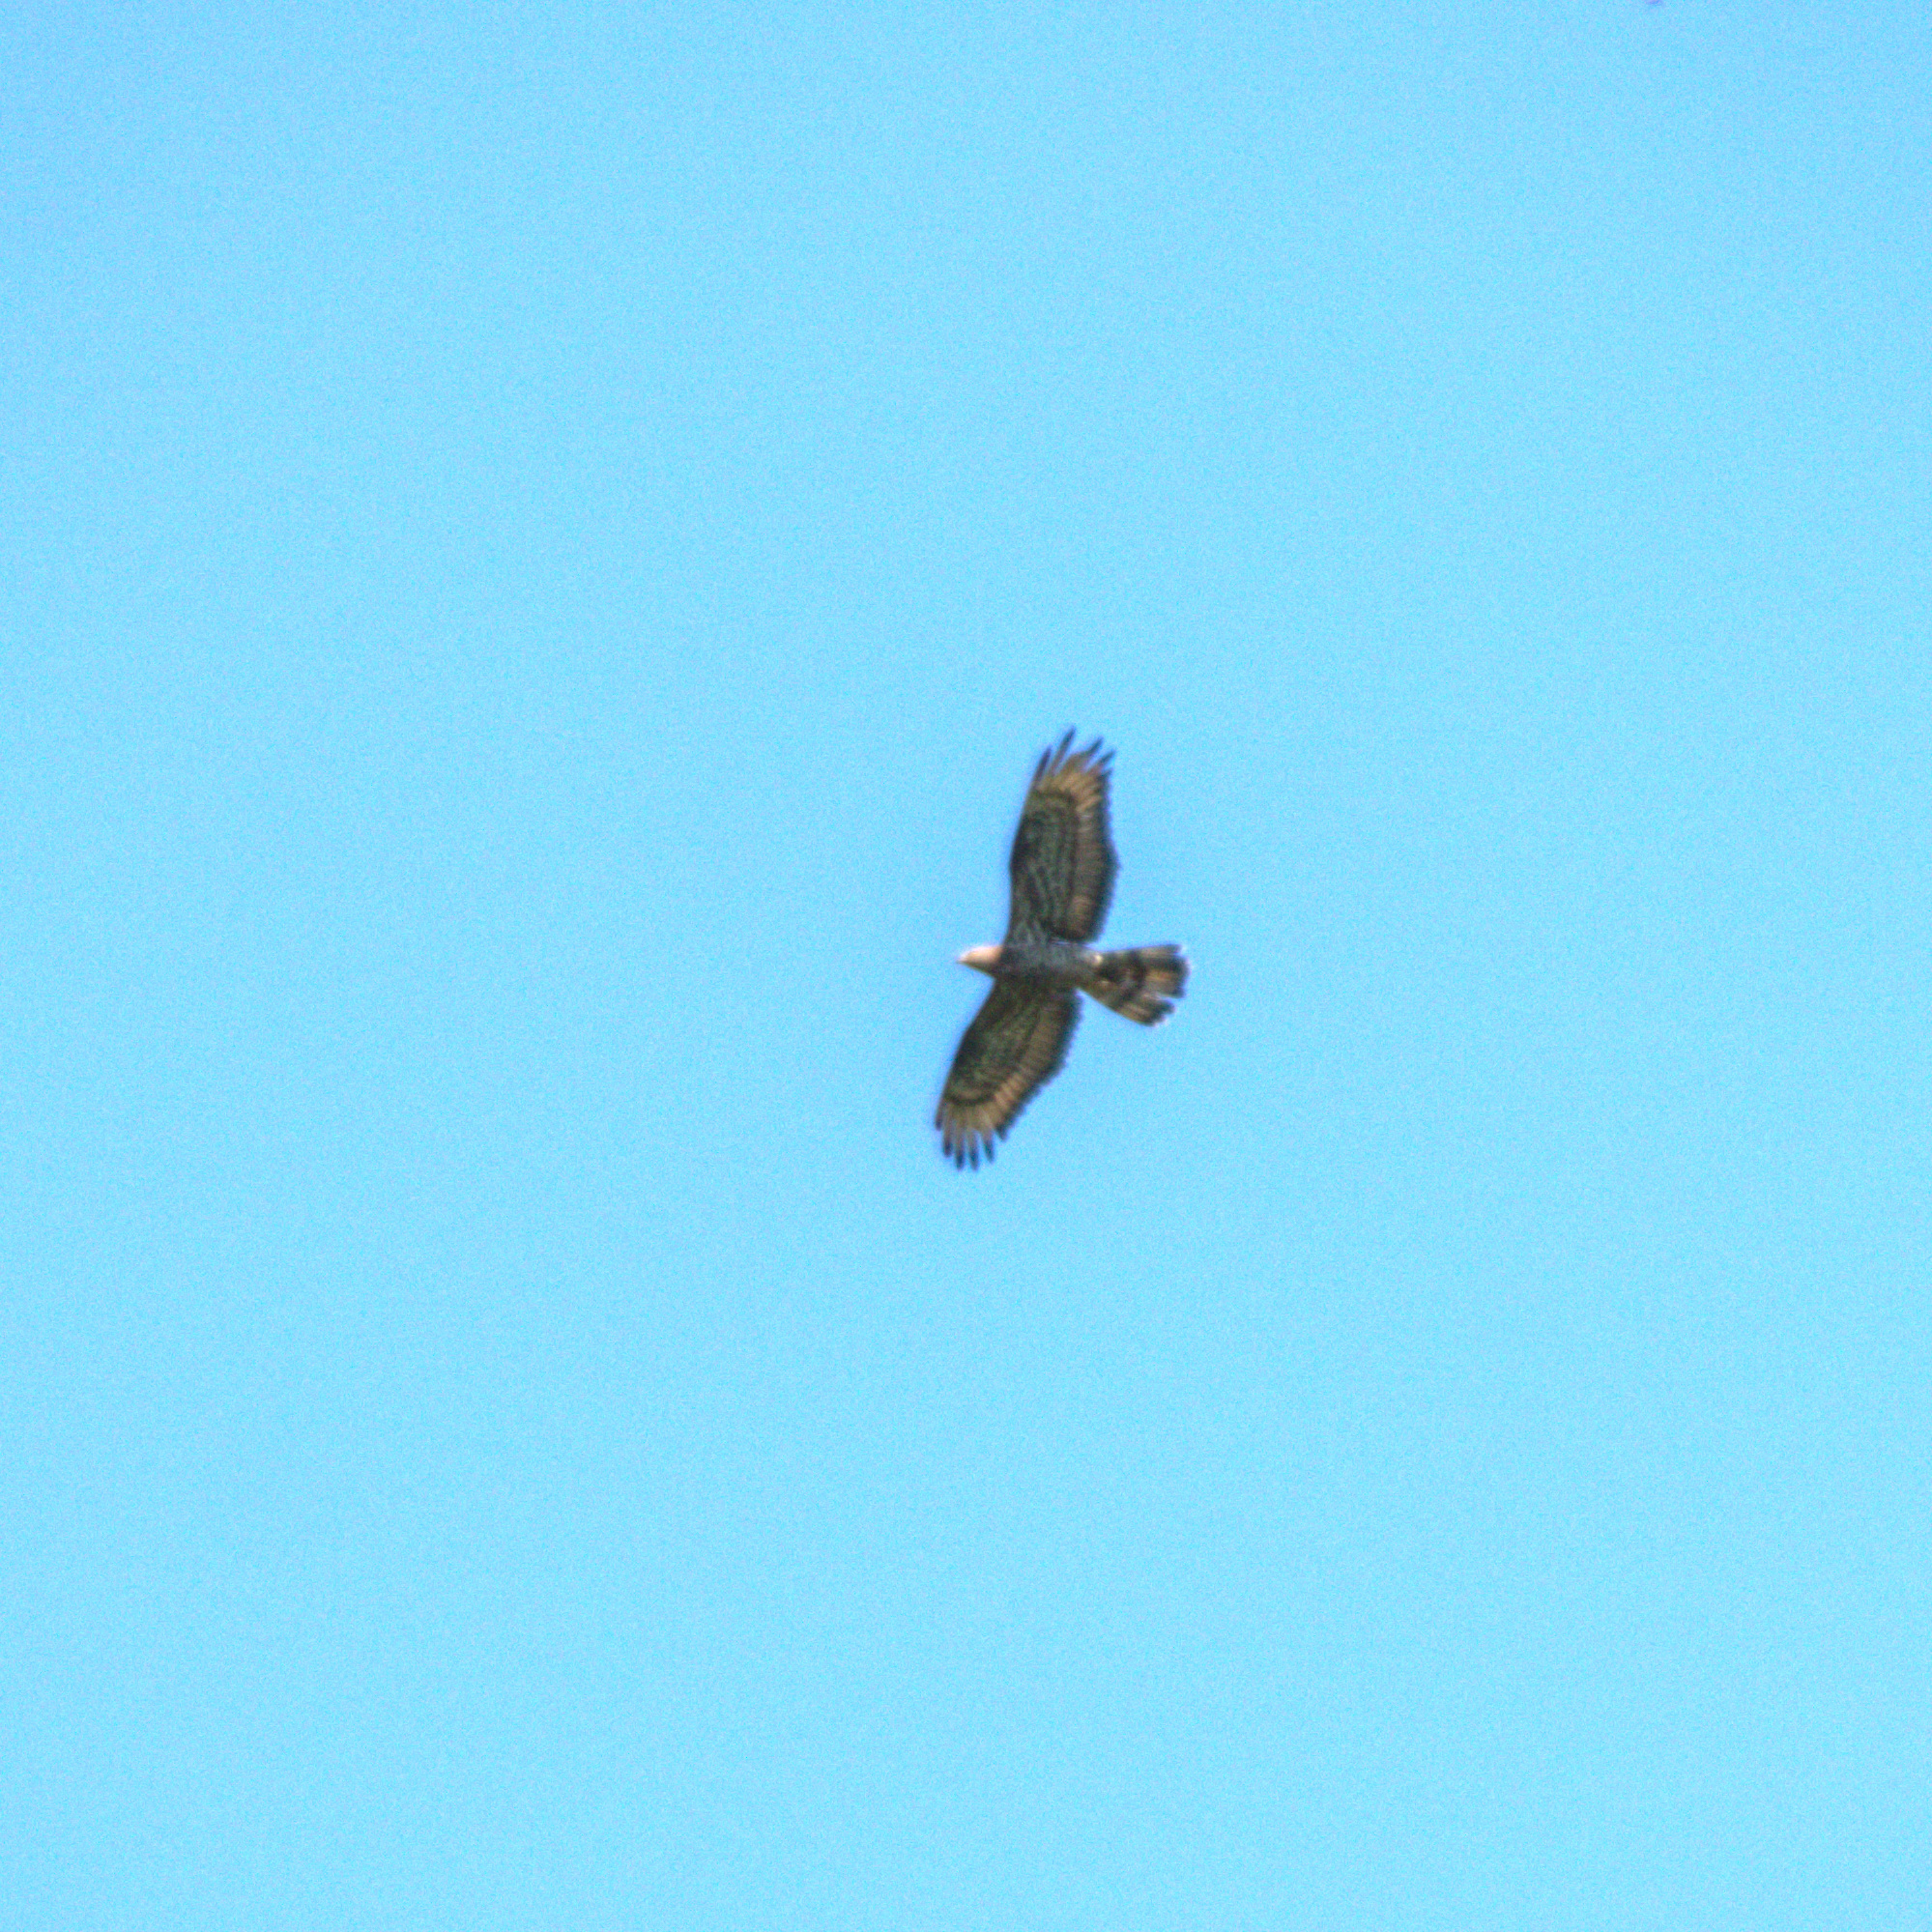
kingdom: Animalia
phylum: Chordata
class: Aves
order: Accipitriformes
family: Accipitridae
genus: Pernis
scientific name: Pernis apivorus
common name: European honey buzzard
